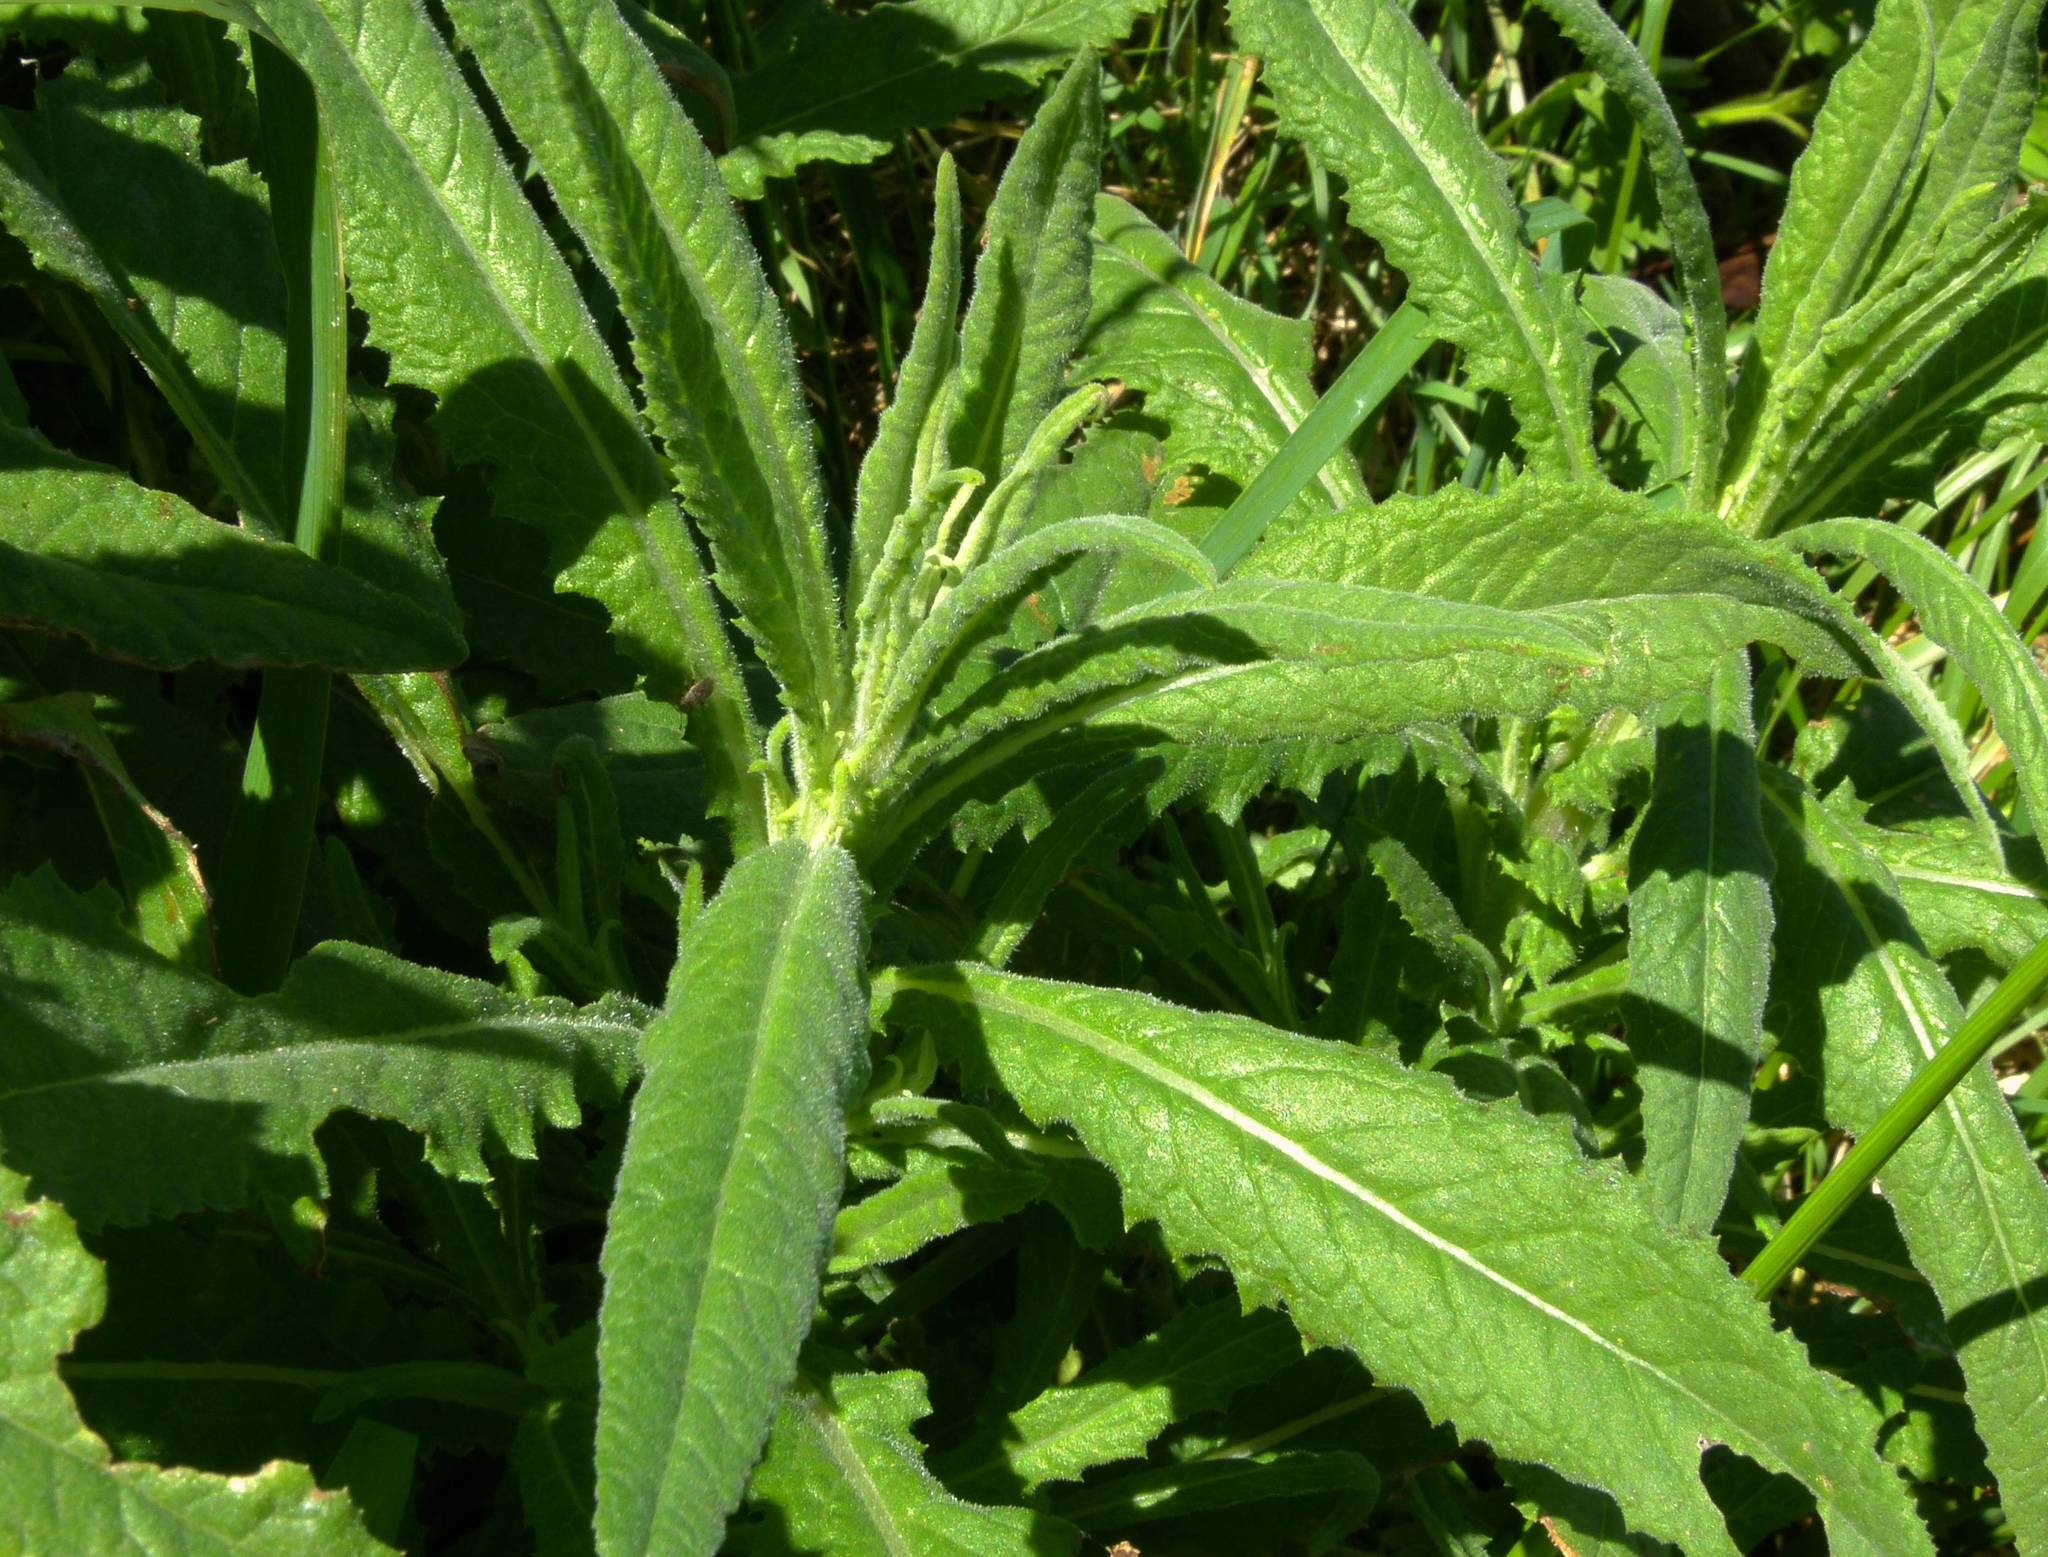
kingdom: Plantae
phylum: Tracheophyta
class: Magnoliopsida
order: Asterales
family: Asteraceae
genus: Senecio
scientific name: Senecio minimus
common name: Toothed fireweed
